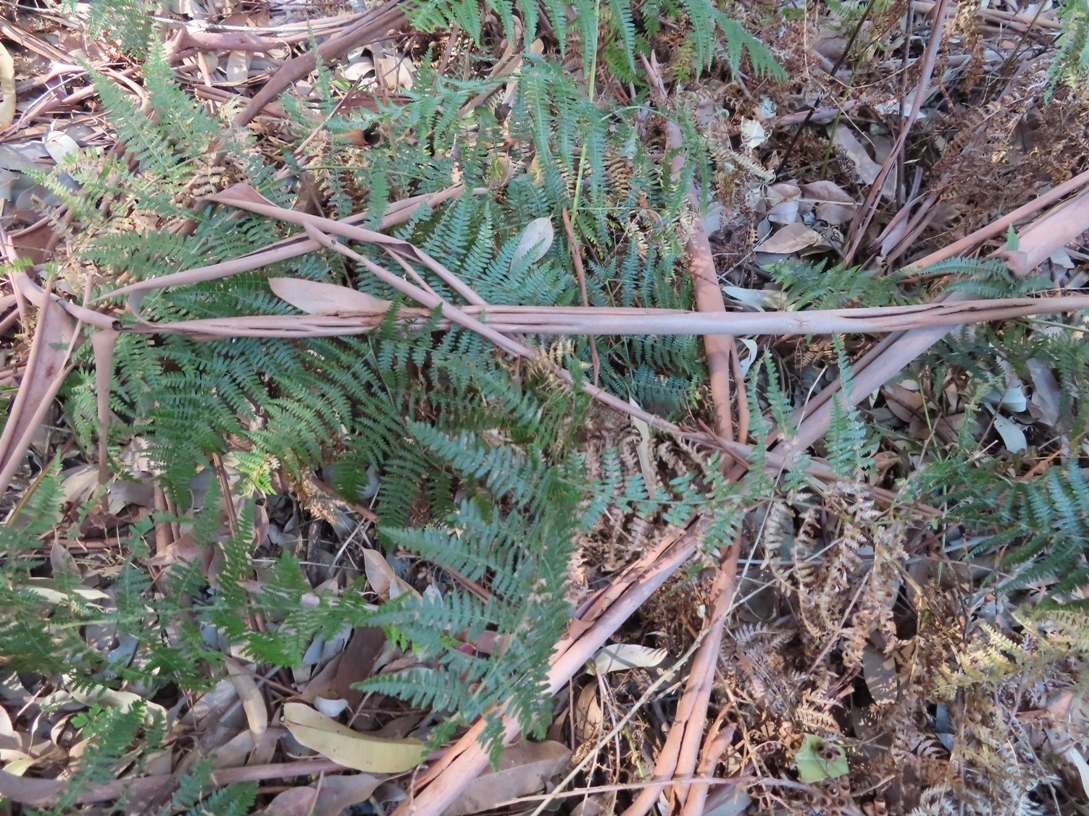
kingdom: Plantae
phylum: Tracheophyta
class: Polypodiopsida
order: Polypodiales
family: Dennstaedtiaceae
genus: Pteridium
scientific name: Pteridium aquilinum
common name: Bracken
